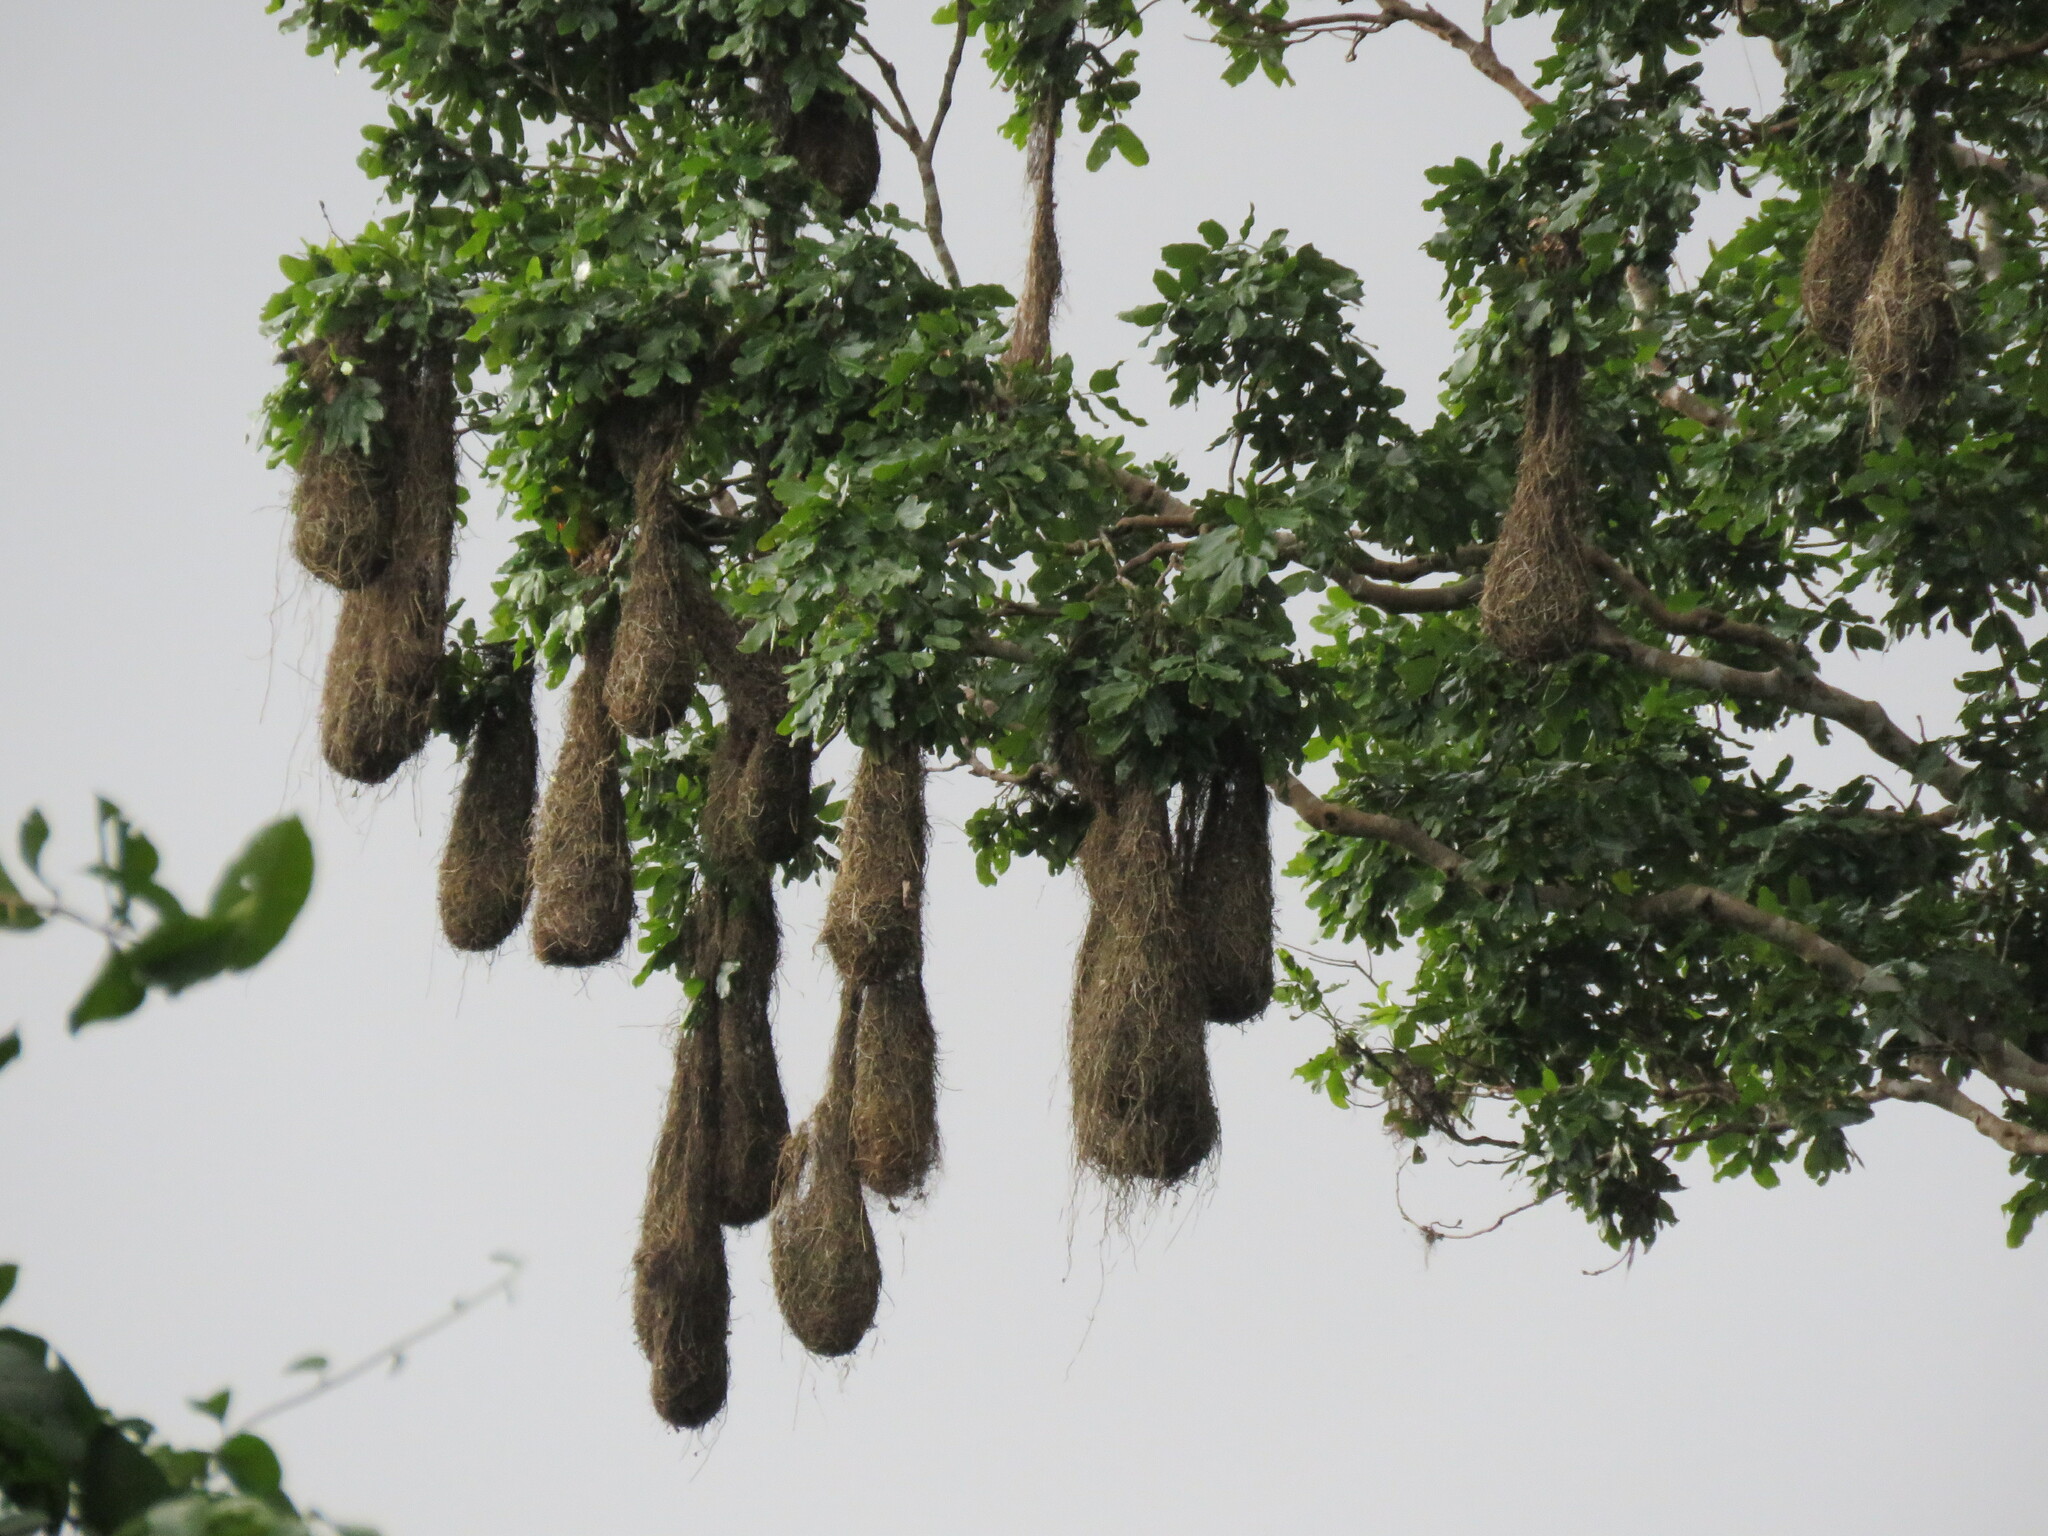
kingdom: Animalia
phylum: Chordata
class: Aves
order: Passeriformes
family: Icteridae
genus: Psarocolius
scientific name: Psarocolius viridis
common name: Green oropendola
